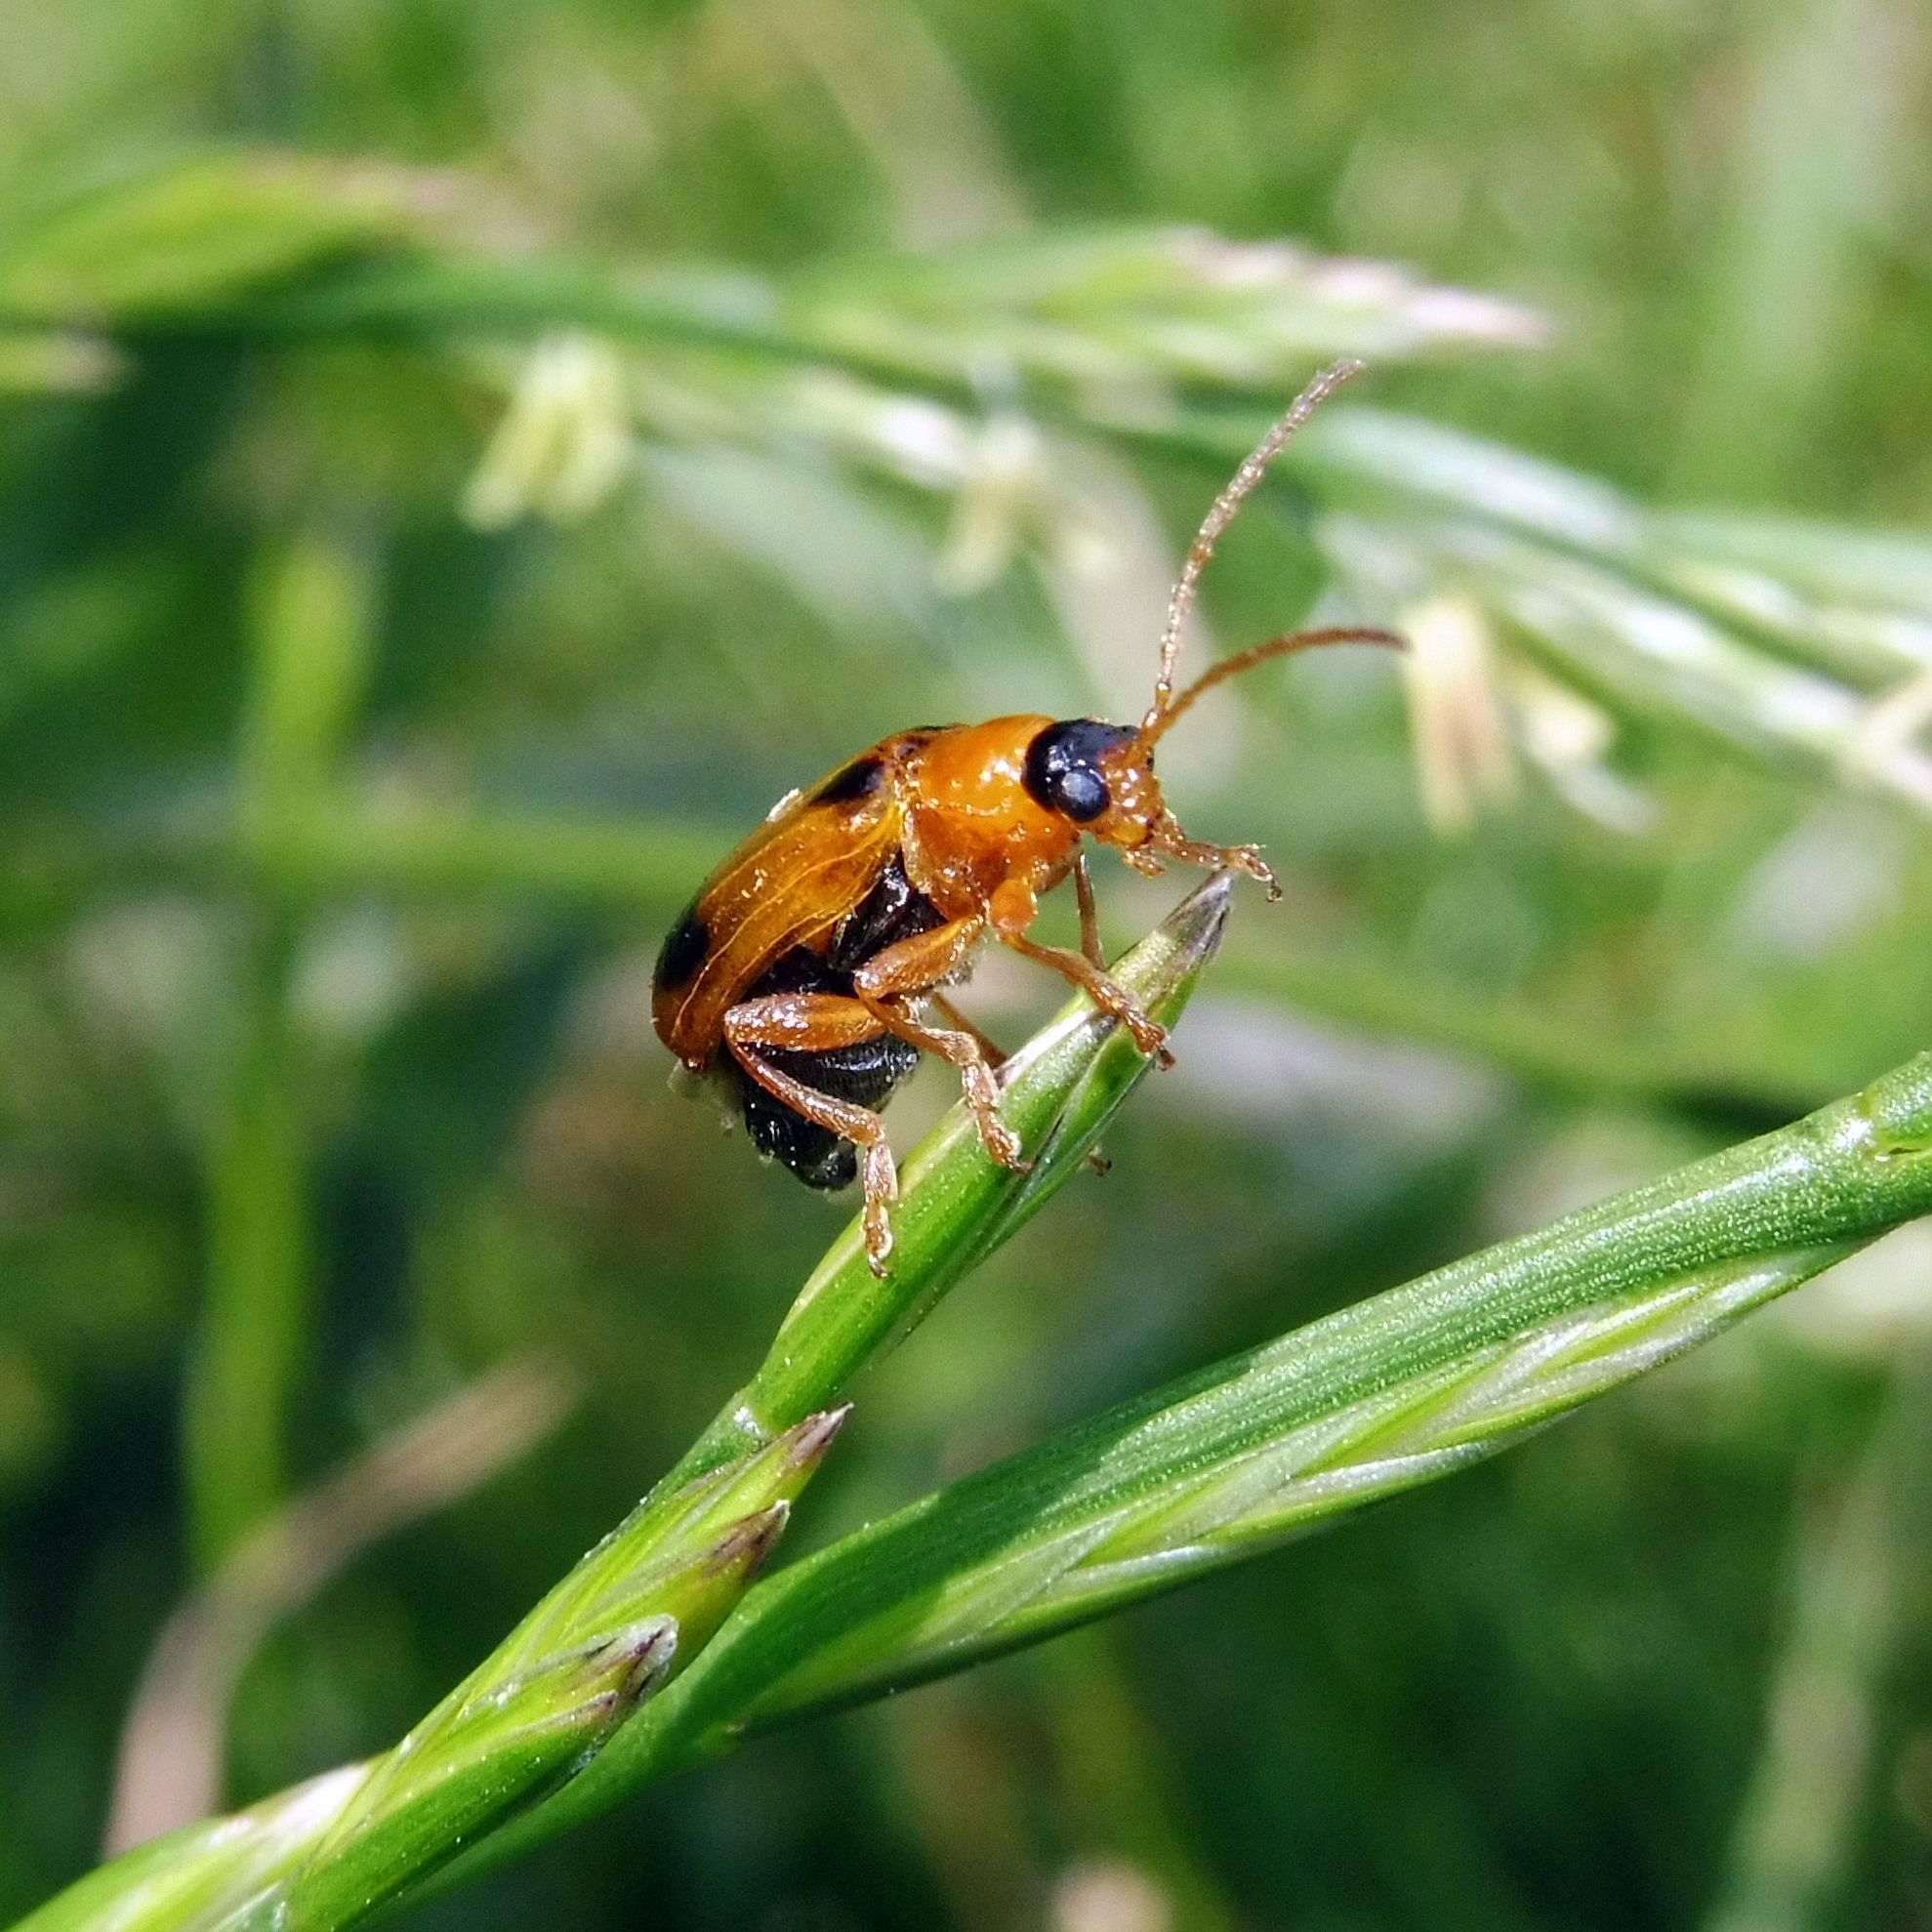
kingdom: Animalia
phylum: Arthropoda
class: Insecta
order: Coleoptera
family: Chrysomelidae
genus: Phyllobrotica
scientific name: Phyllobrotica quadrimaculata
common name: Skullcap leaf beetle
